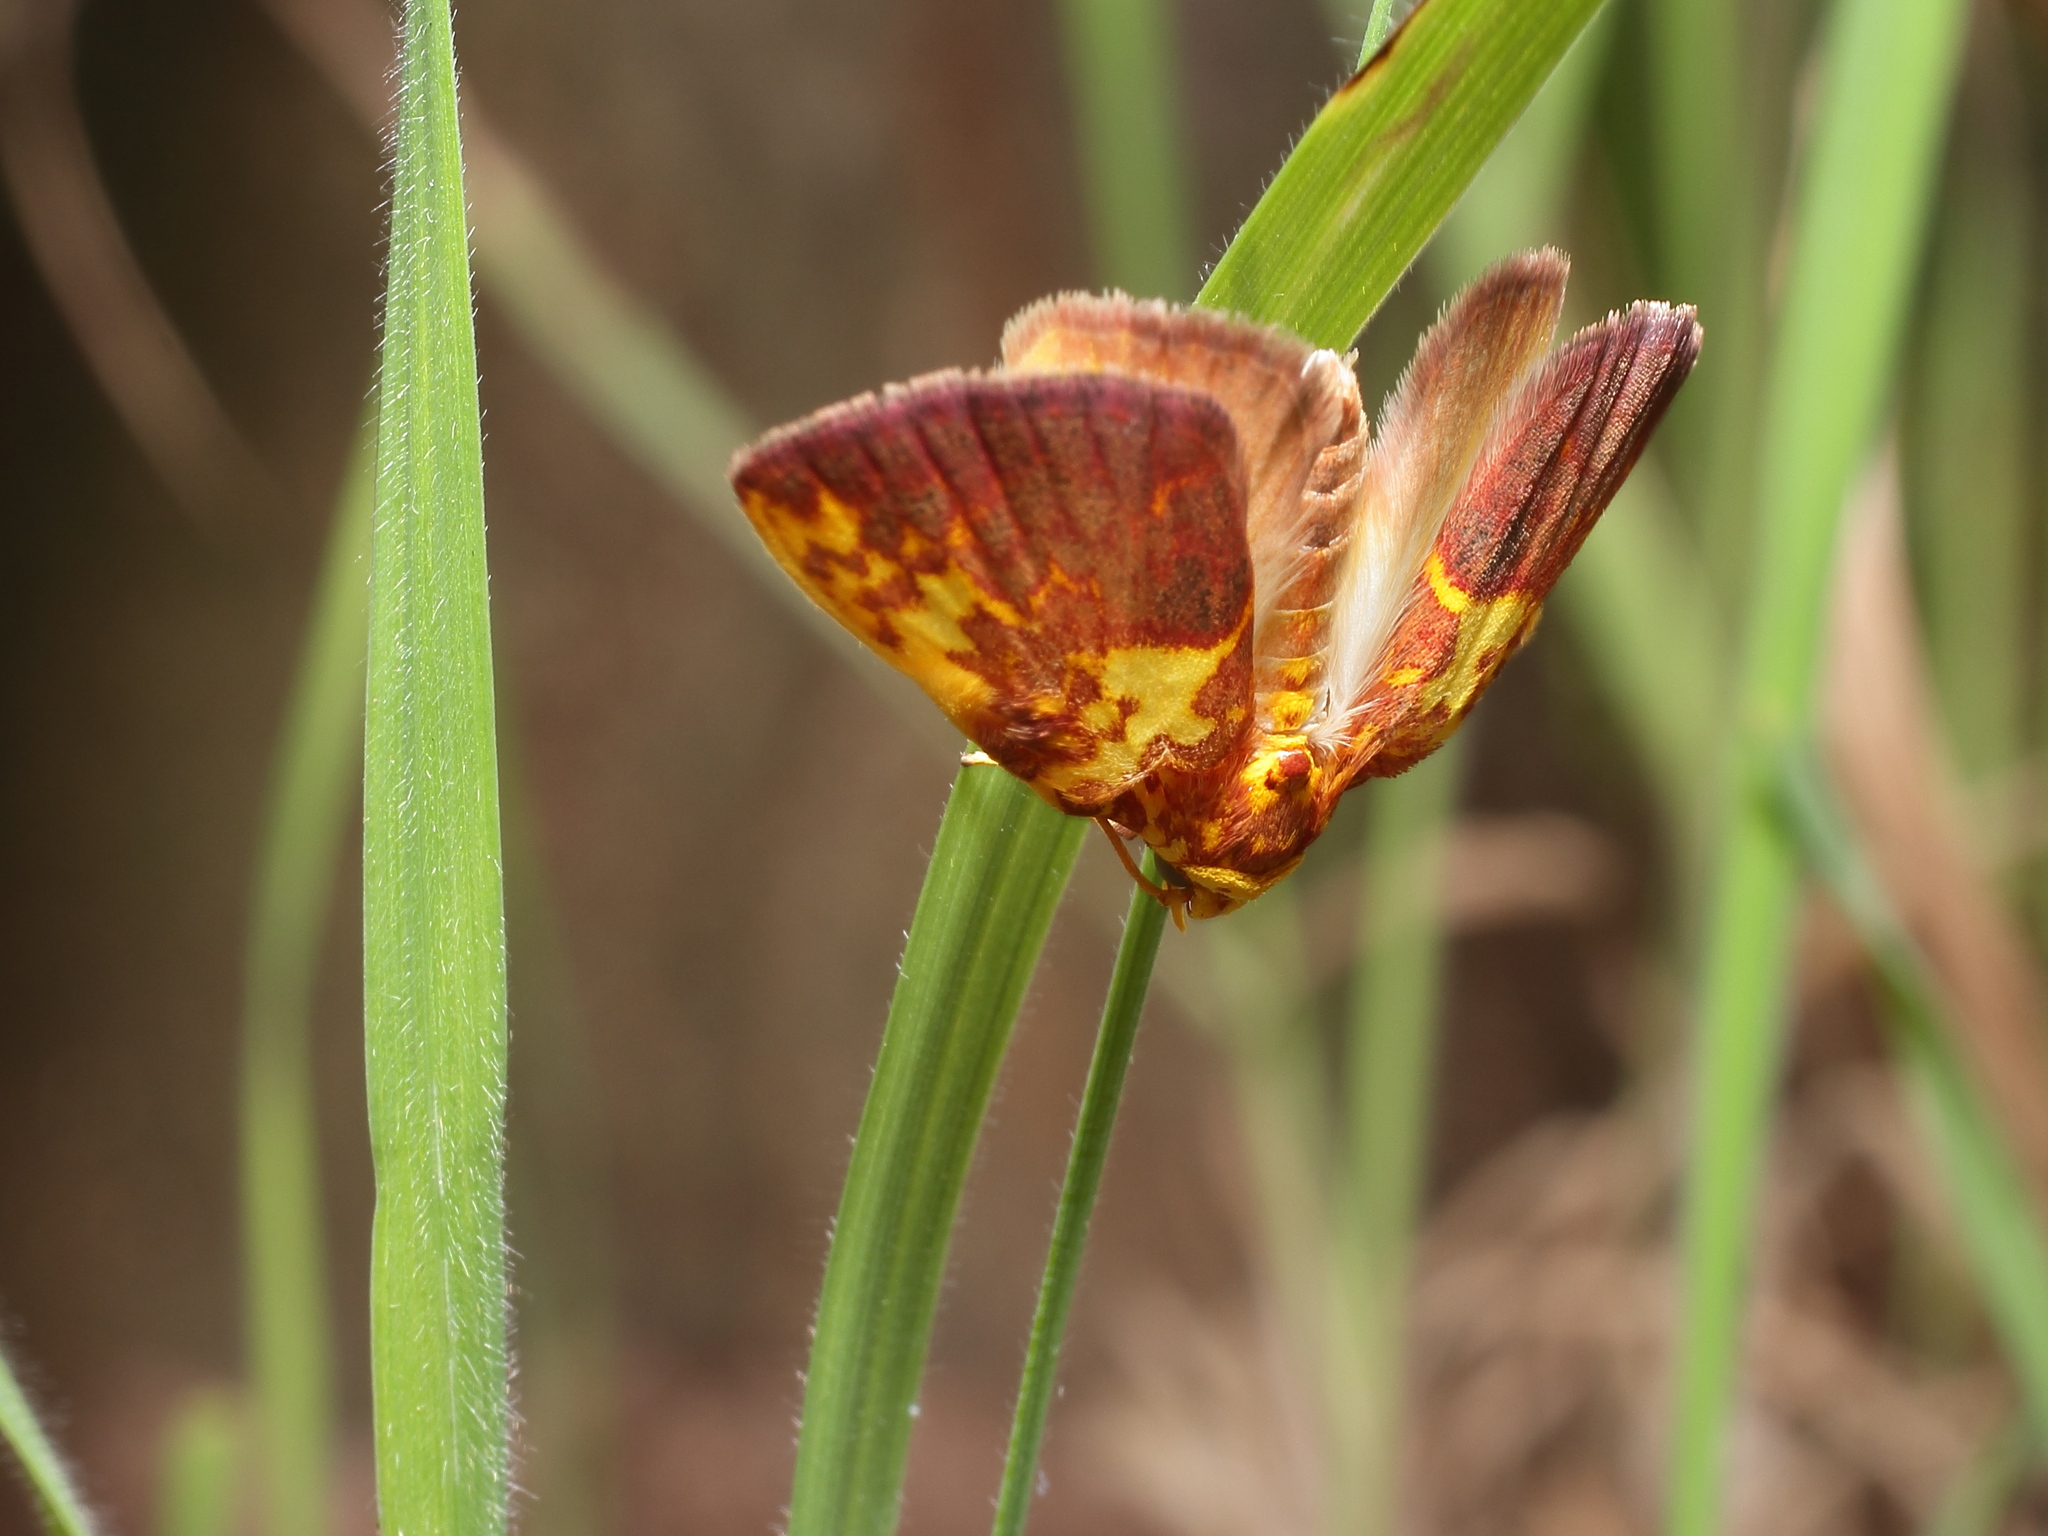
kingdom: Animalia
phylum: Arthropoda
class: Insecta
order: Lepidoptera
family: Nolidae
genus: Siglophora
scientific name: Siglophora ferreilutea
